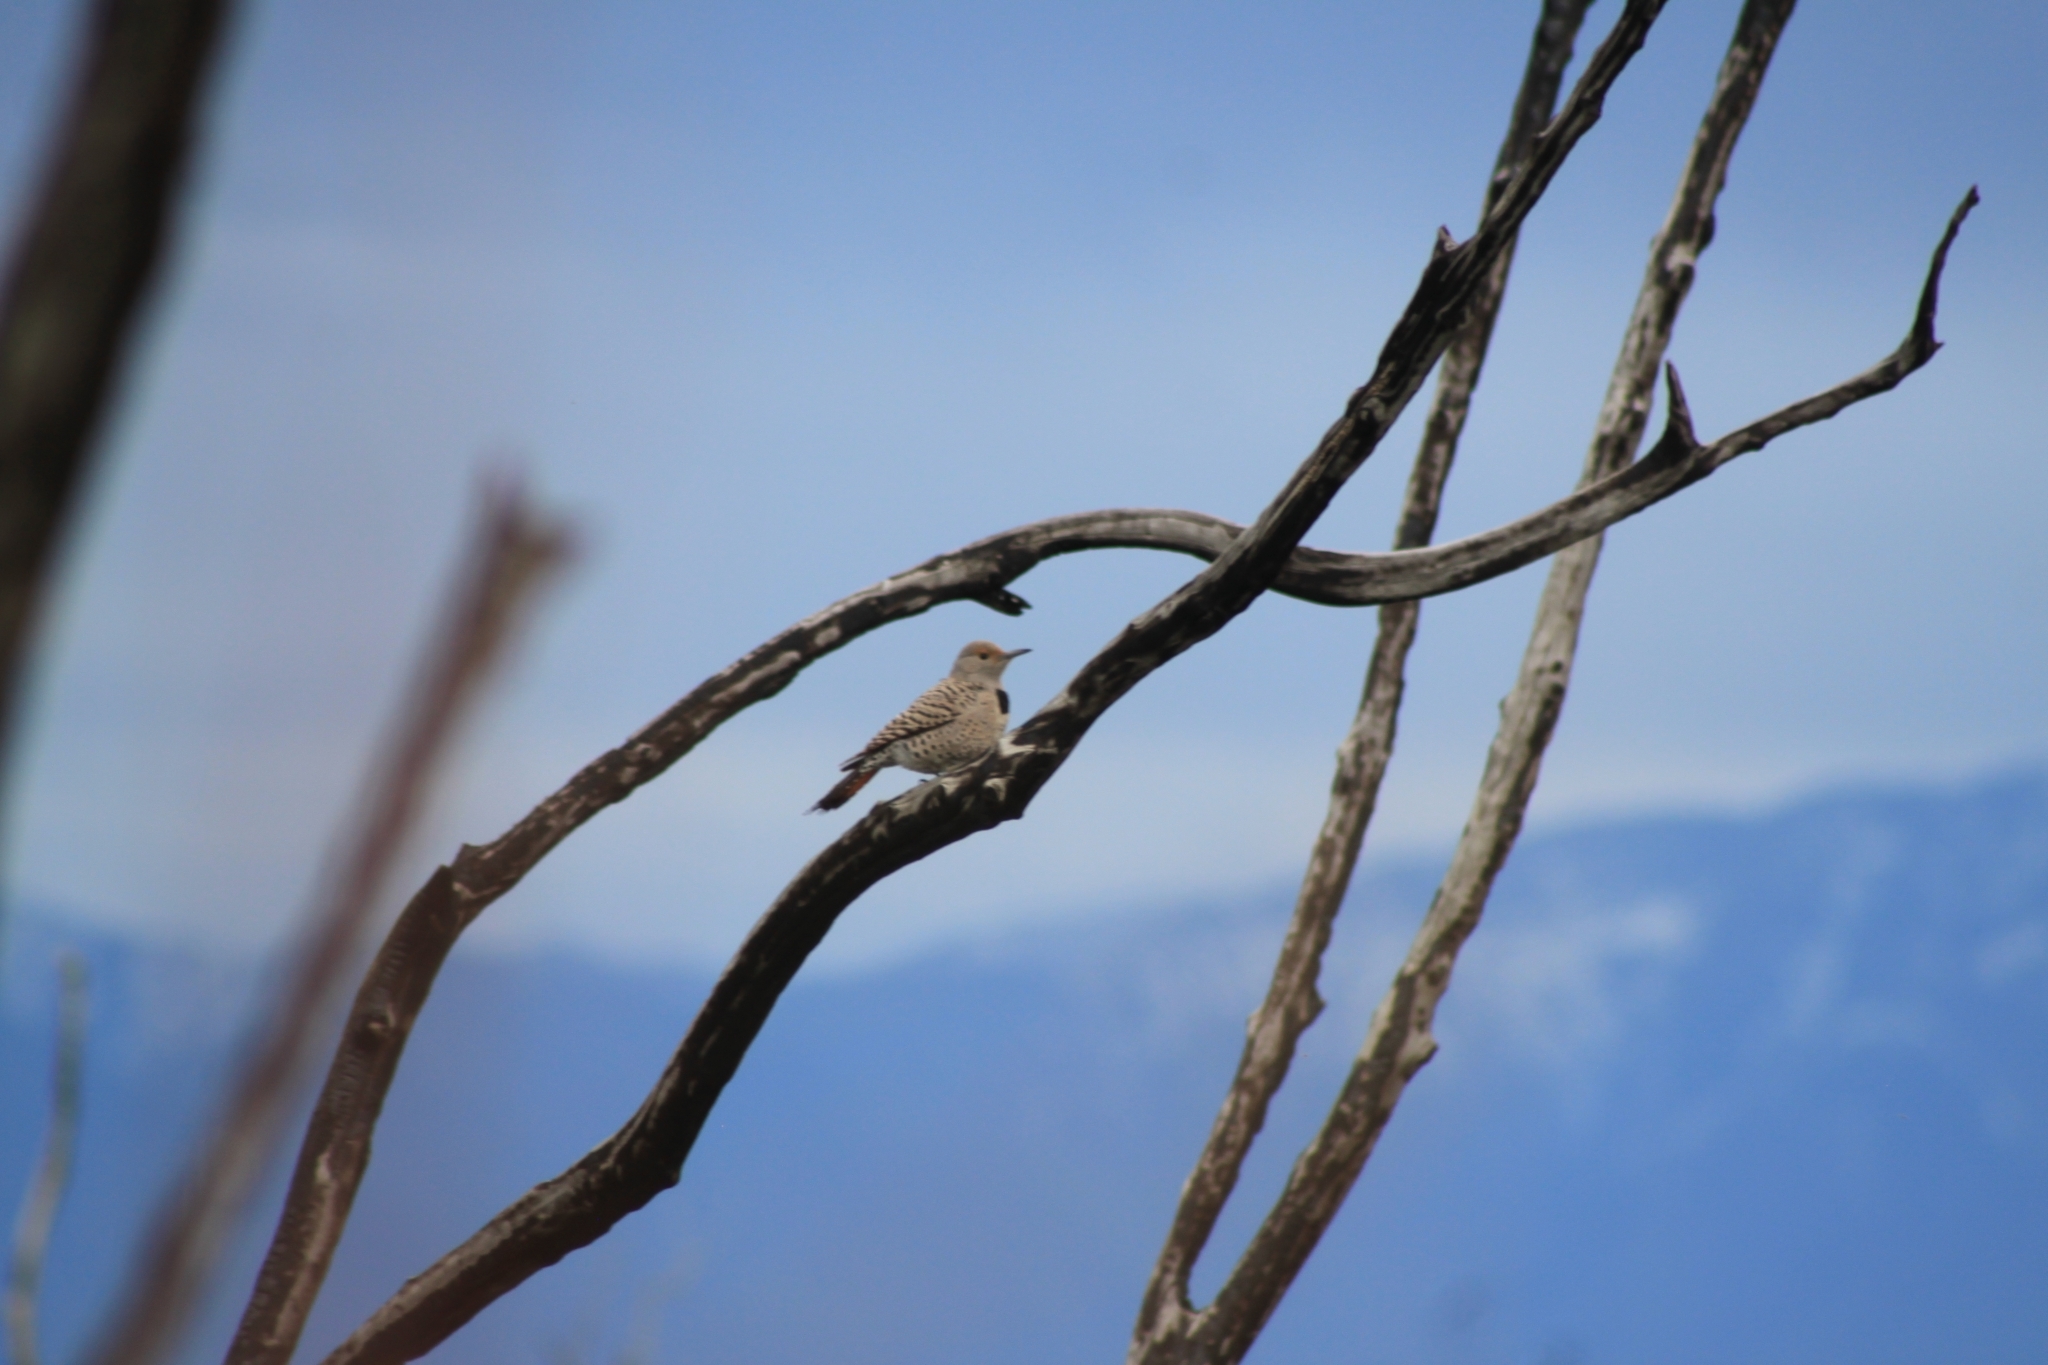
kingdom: Animalia
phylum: Chordata
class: Aves
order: Piciformes
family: Picidae
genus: Colaptes
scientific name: Colaptes auratus
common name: Northern flicker
